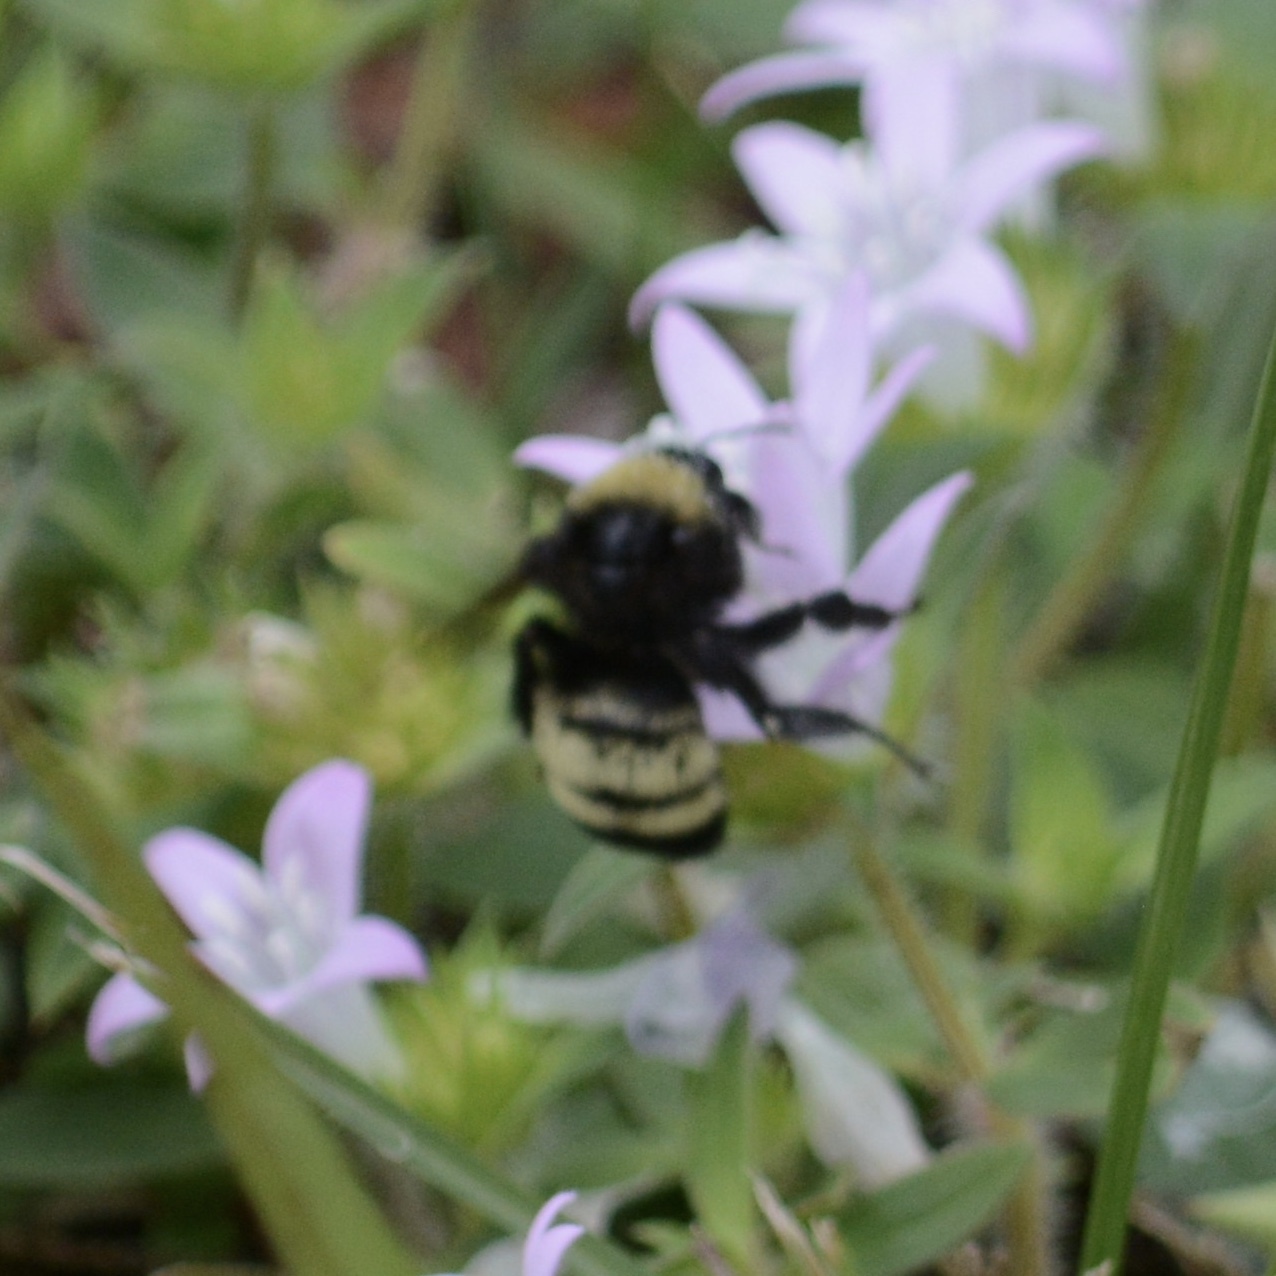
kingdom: Animalia
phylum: Arthropoda
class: Insecta
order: Hymenoptera
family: Apidae
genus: Bombus
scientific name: Bombus pensylvanicus
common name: Bumble bee
